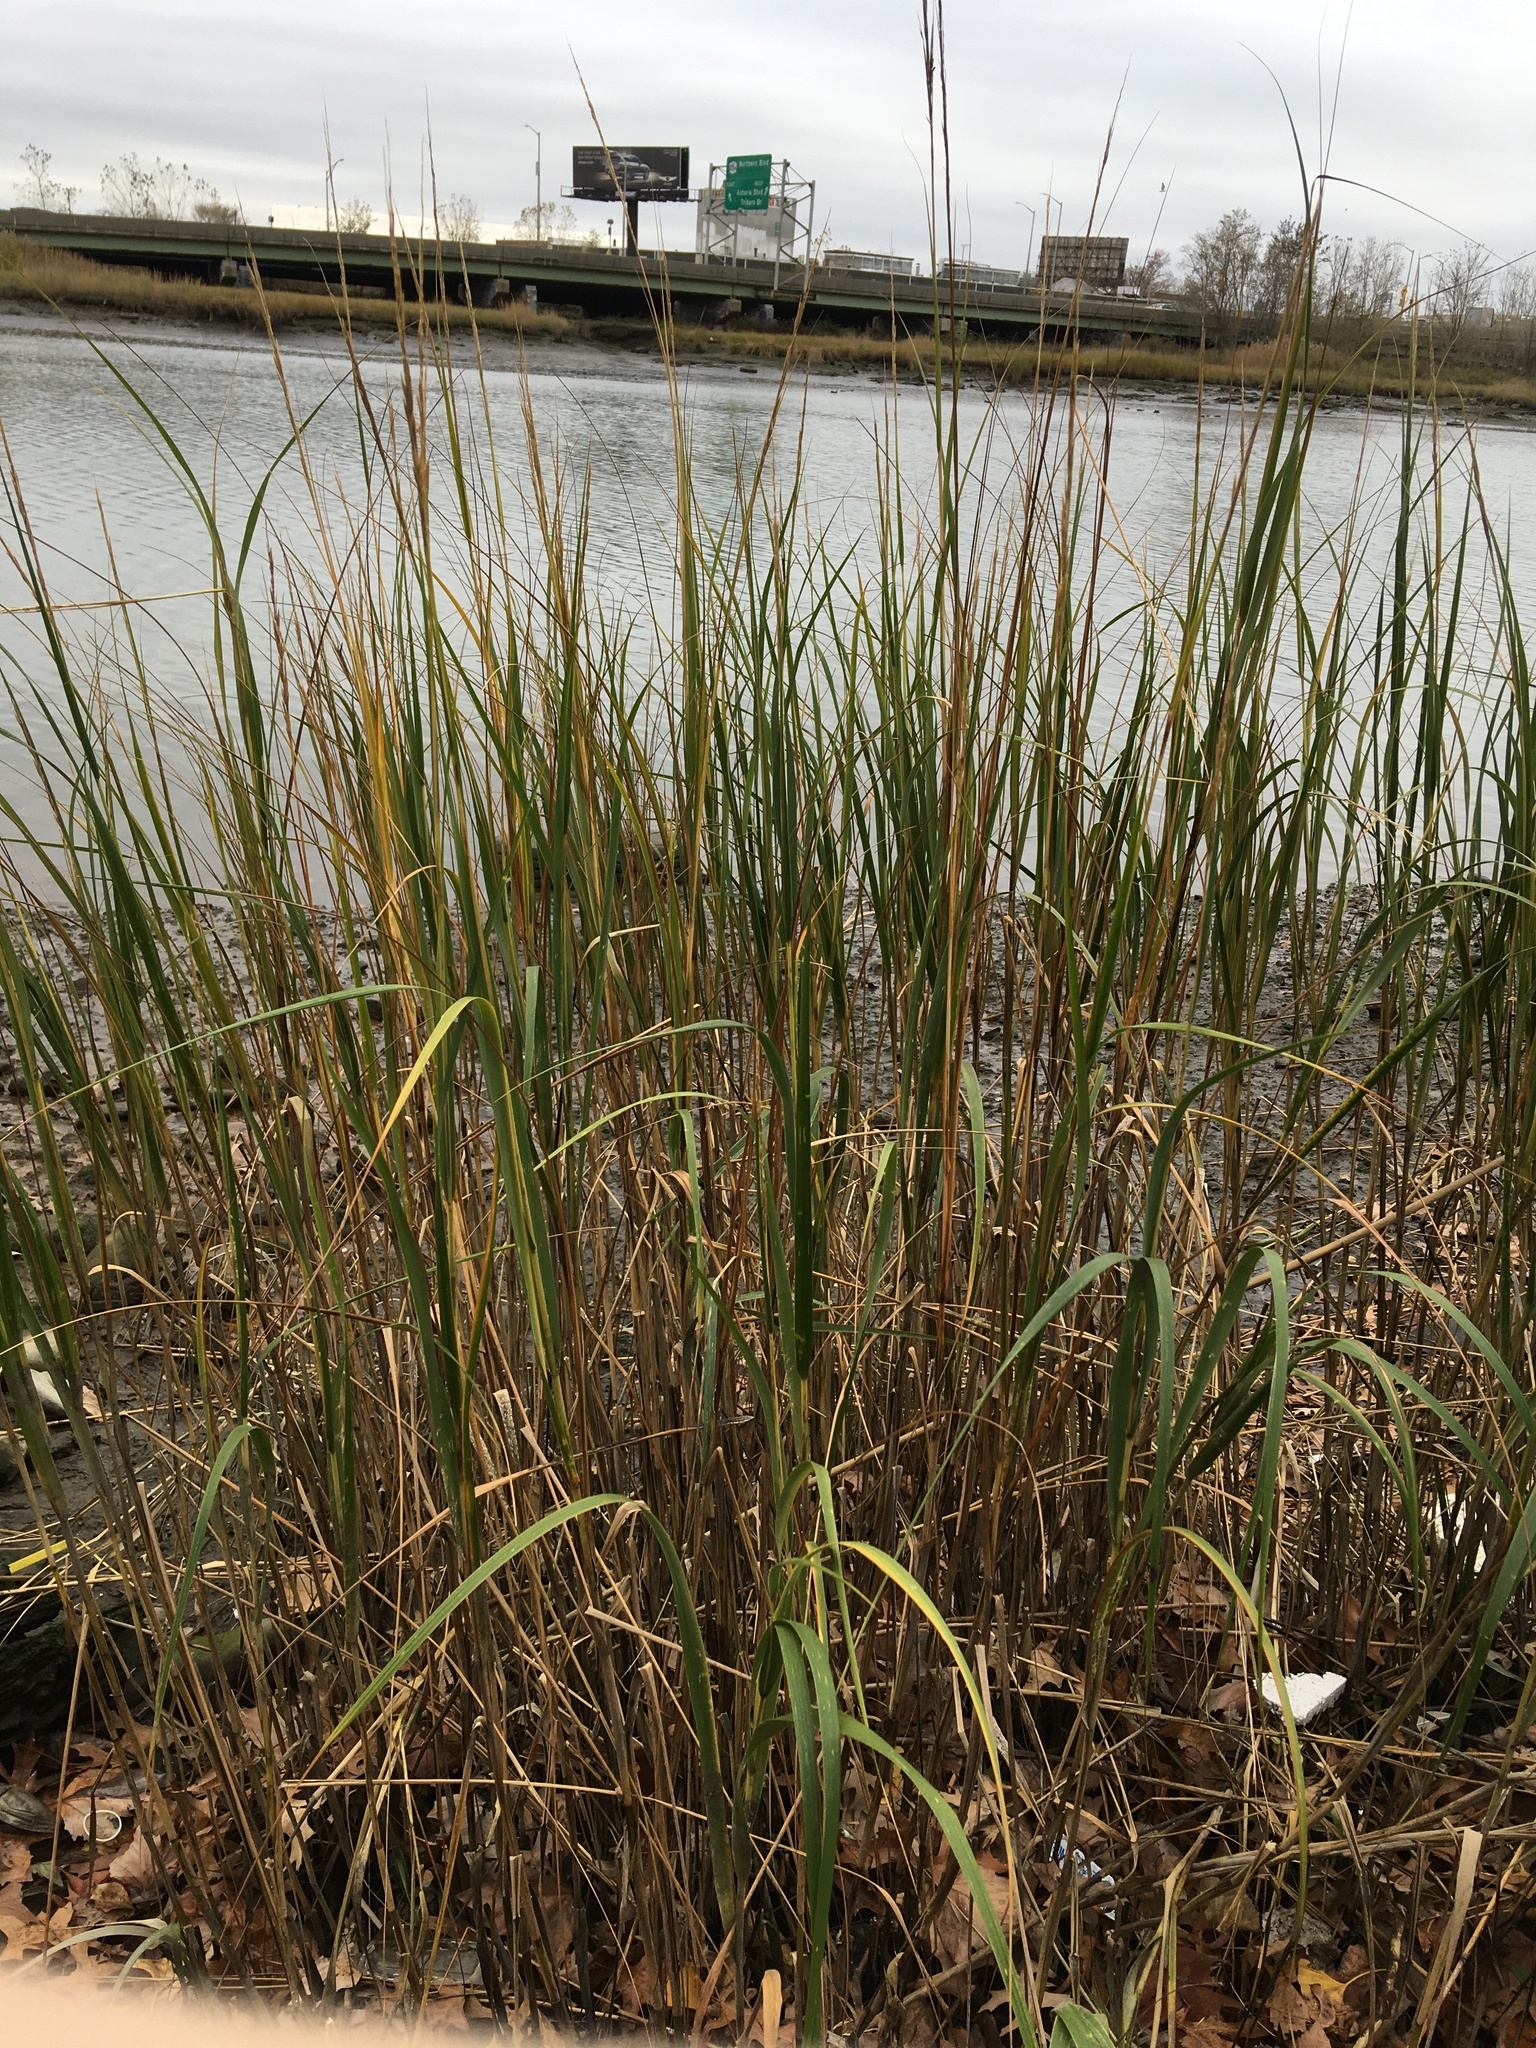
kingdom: Plantae
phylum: Tracheophyta
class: Liliopsida
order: Poales
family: Poaceae
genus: Sporobolus
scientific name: Sporobolus alterniflorus
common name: Atlantic cordgrass
